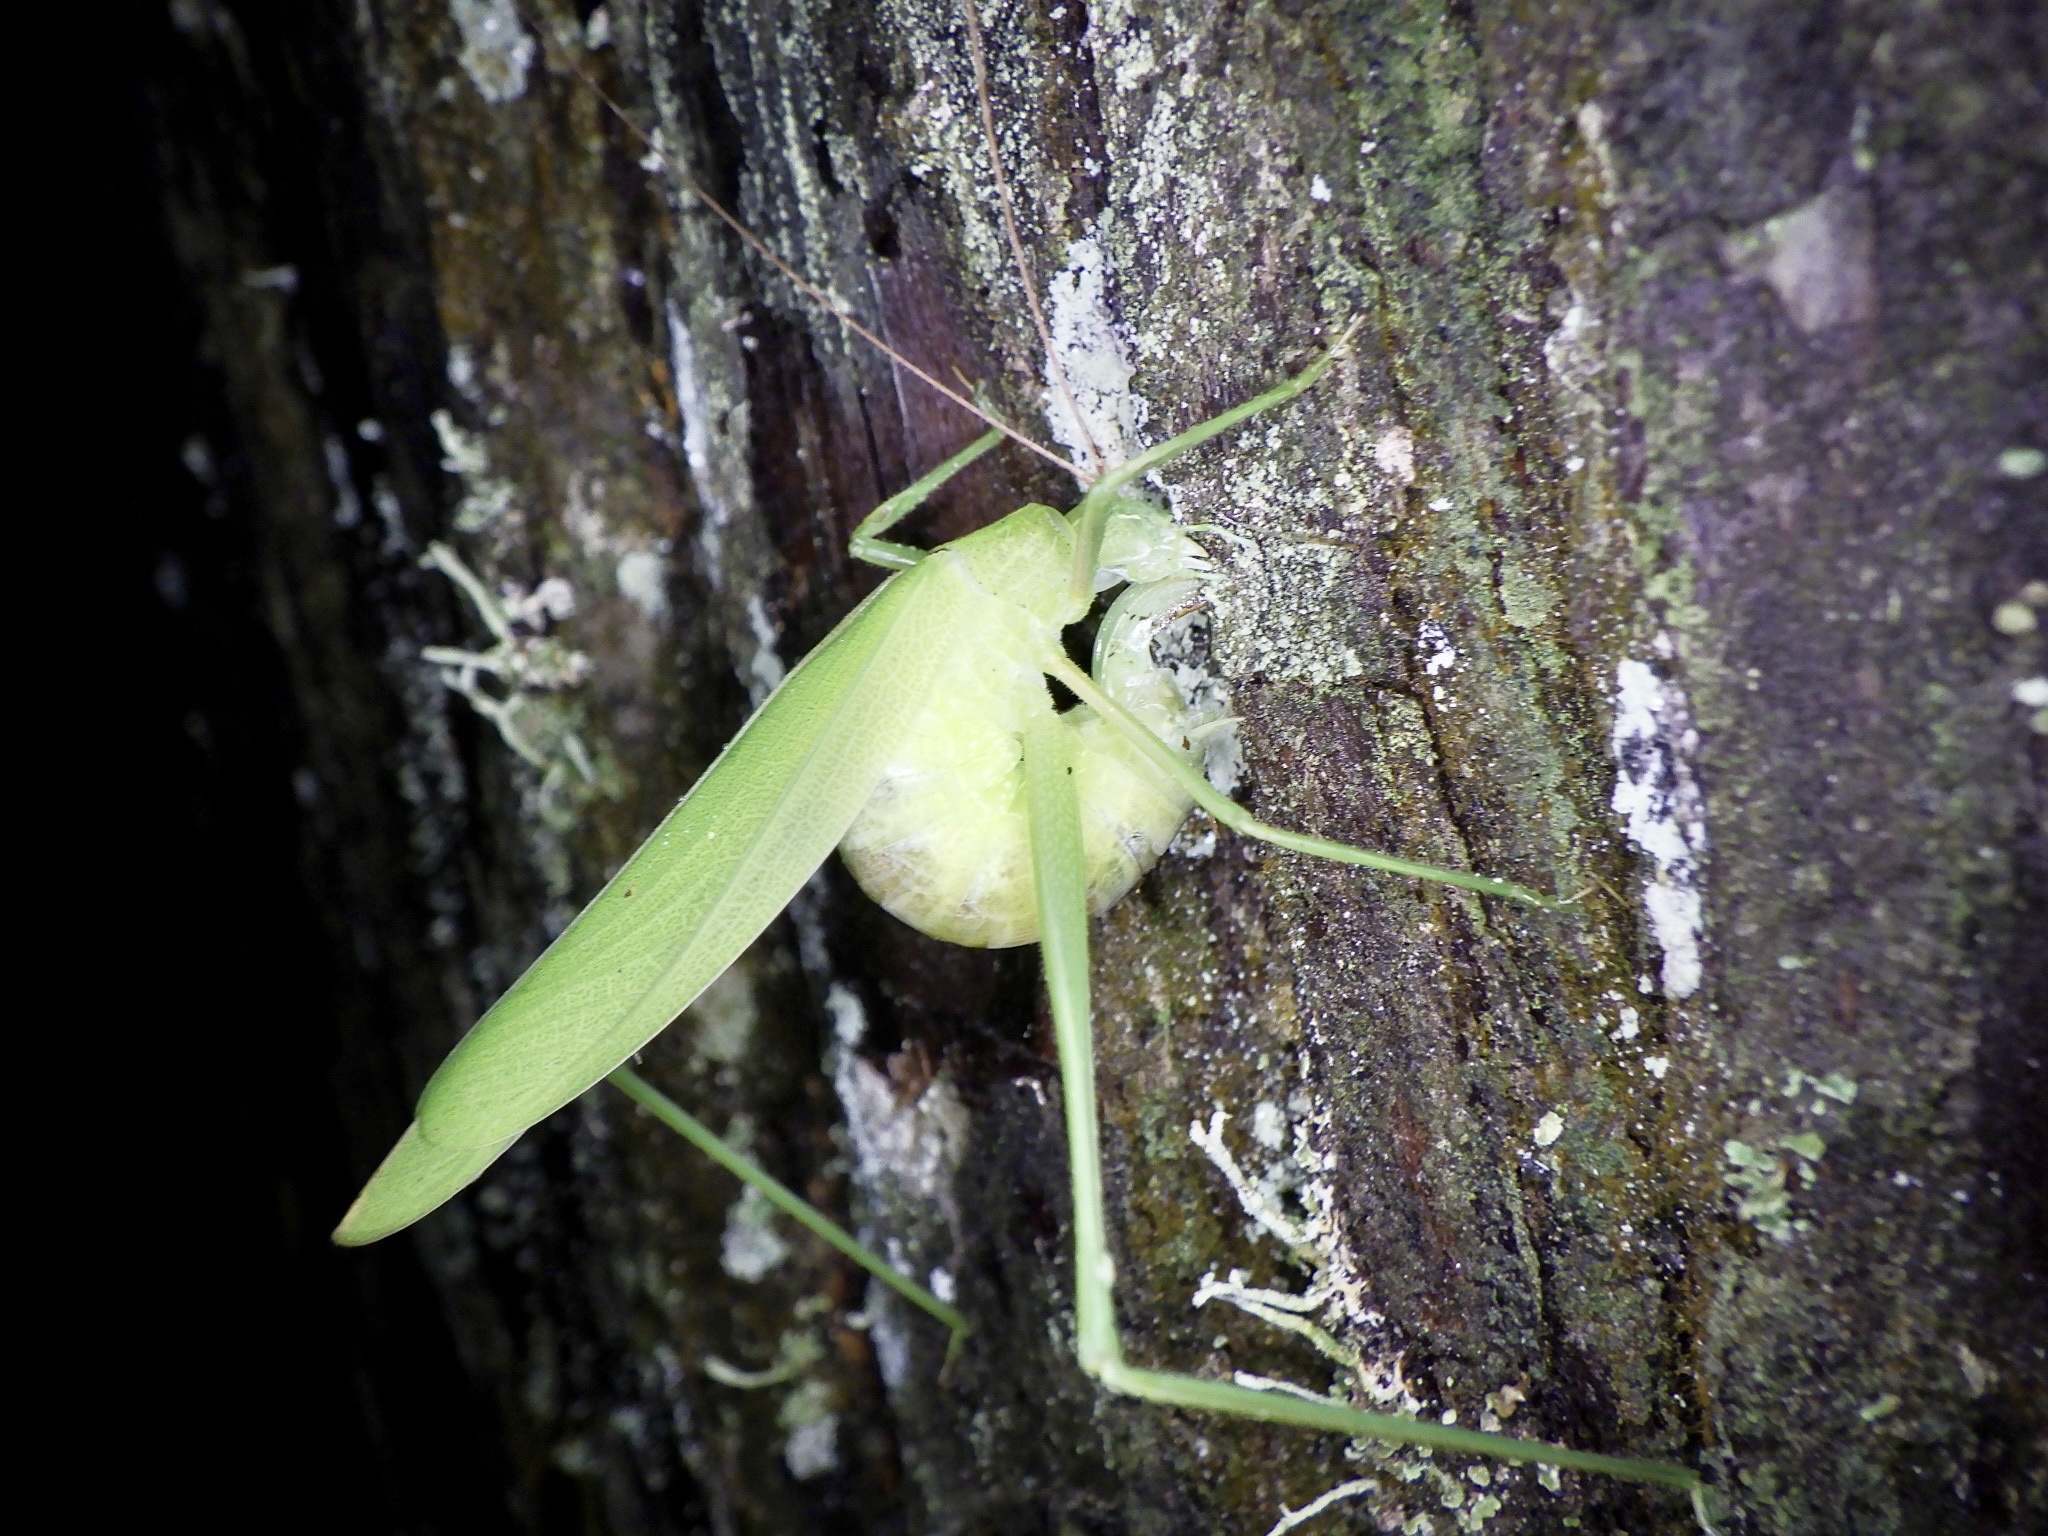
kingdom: Animalia
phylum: Arthropoda
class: Insecta
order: Orthoptera
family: Tettigoniidae
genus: Ducetia
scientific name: Ducetia japonica
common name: Pacific ducetia
